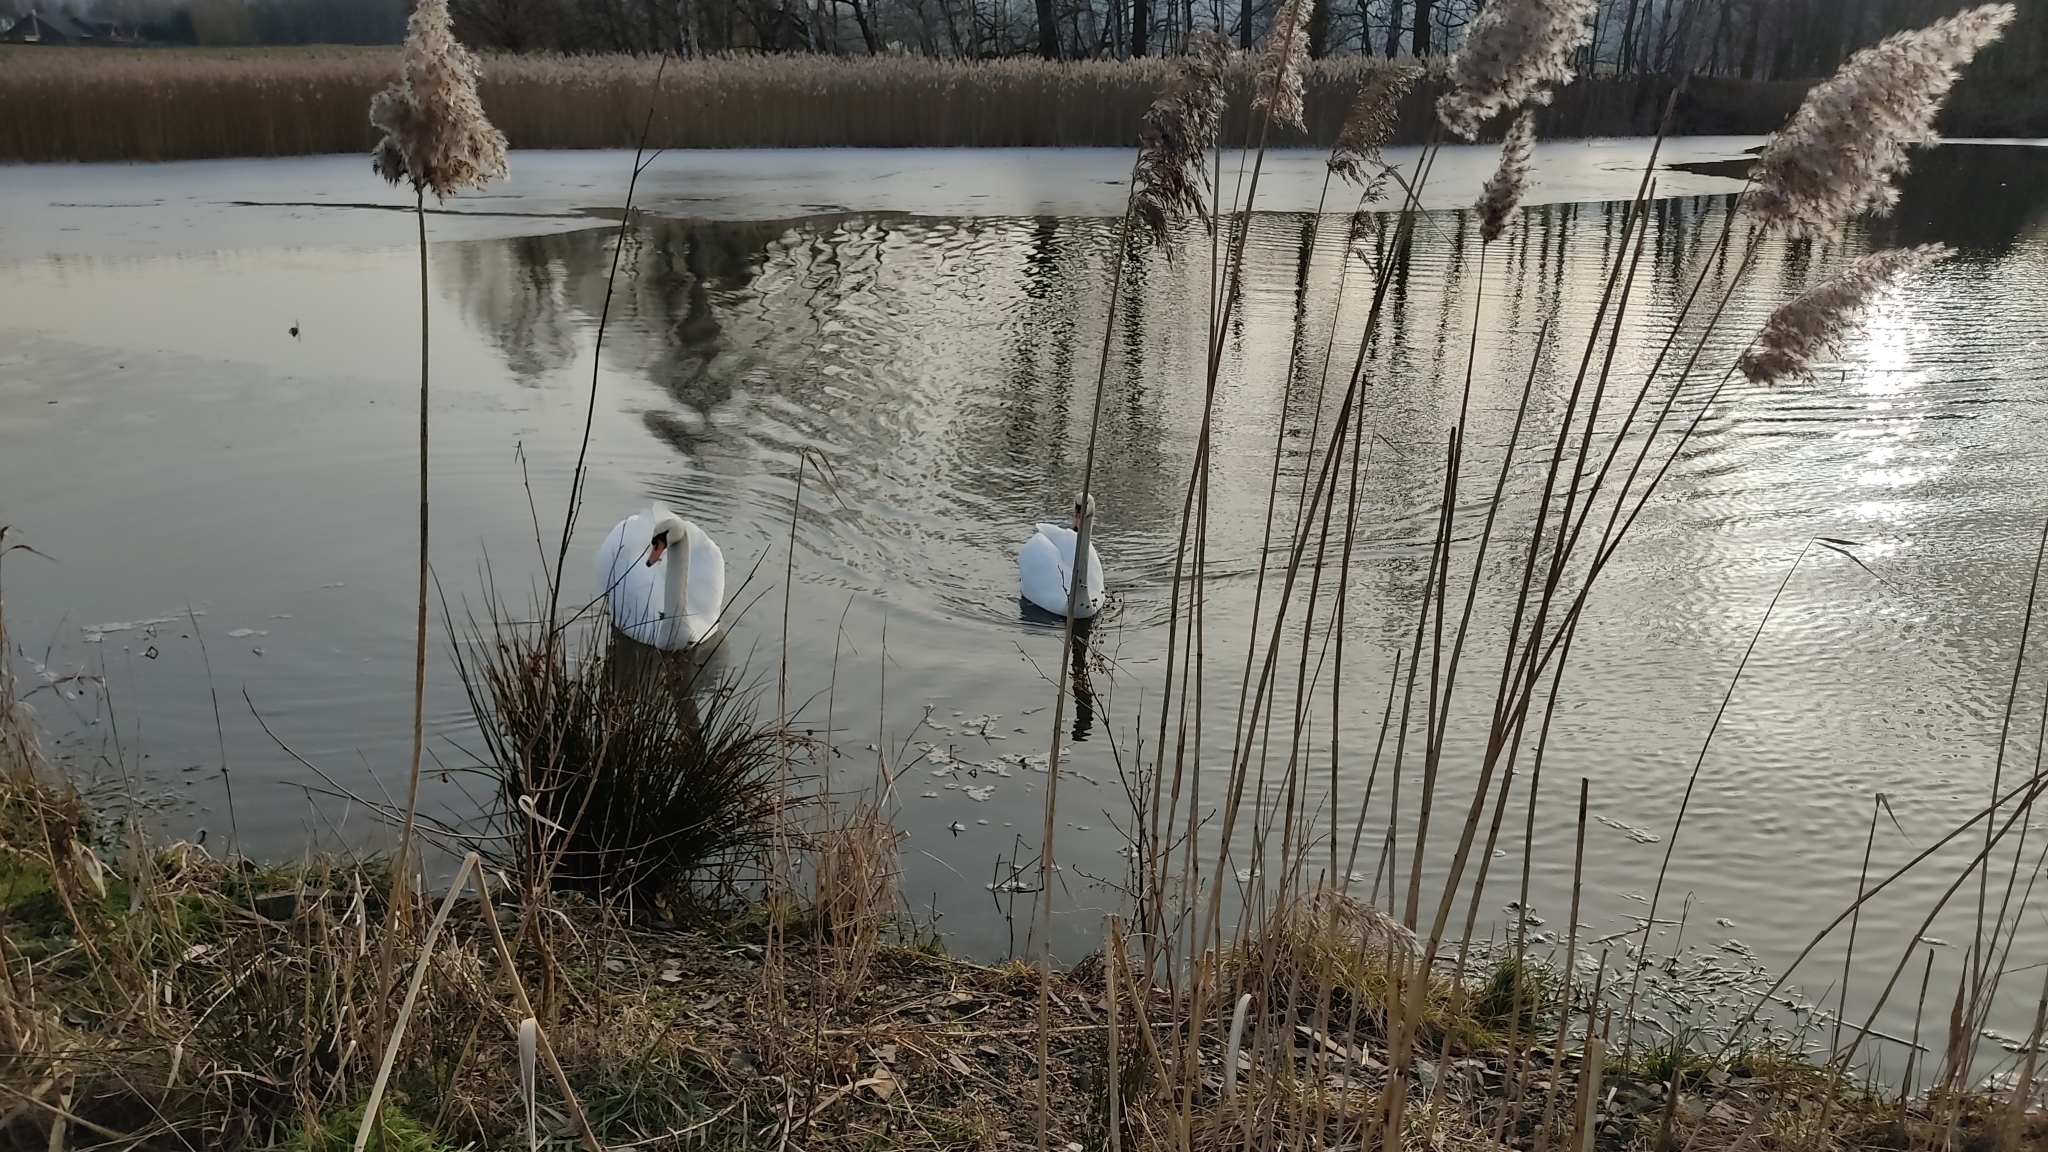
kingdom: Animalia
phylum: Chordata
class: Aves
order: Anseriformes
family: Anatidae
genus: Cygnus
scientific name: Cygnus olor
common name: Mute swan
